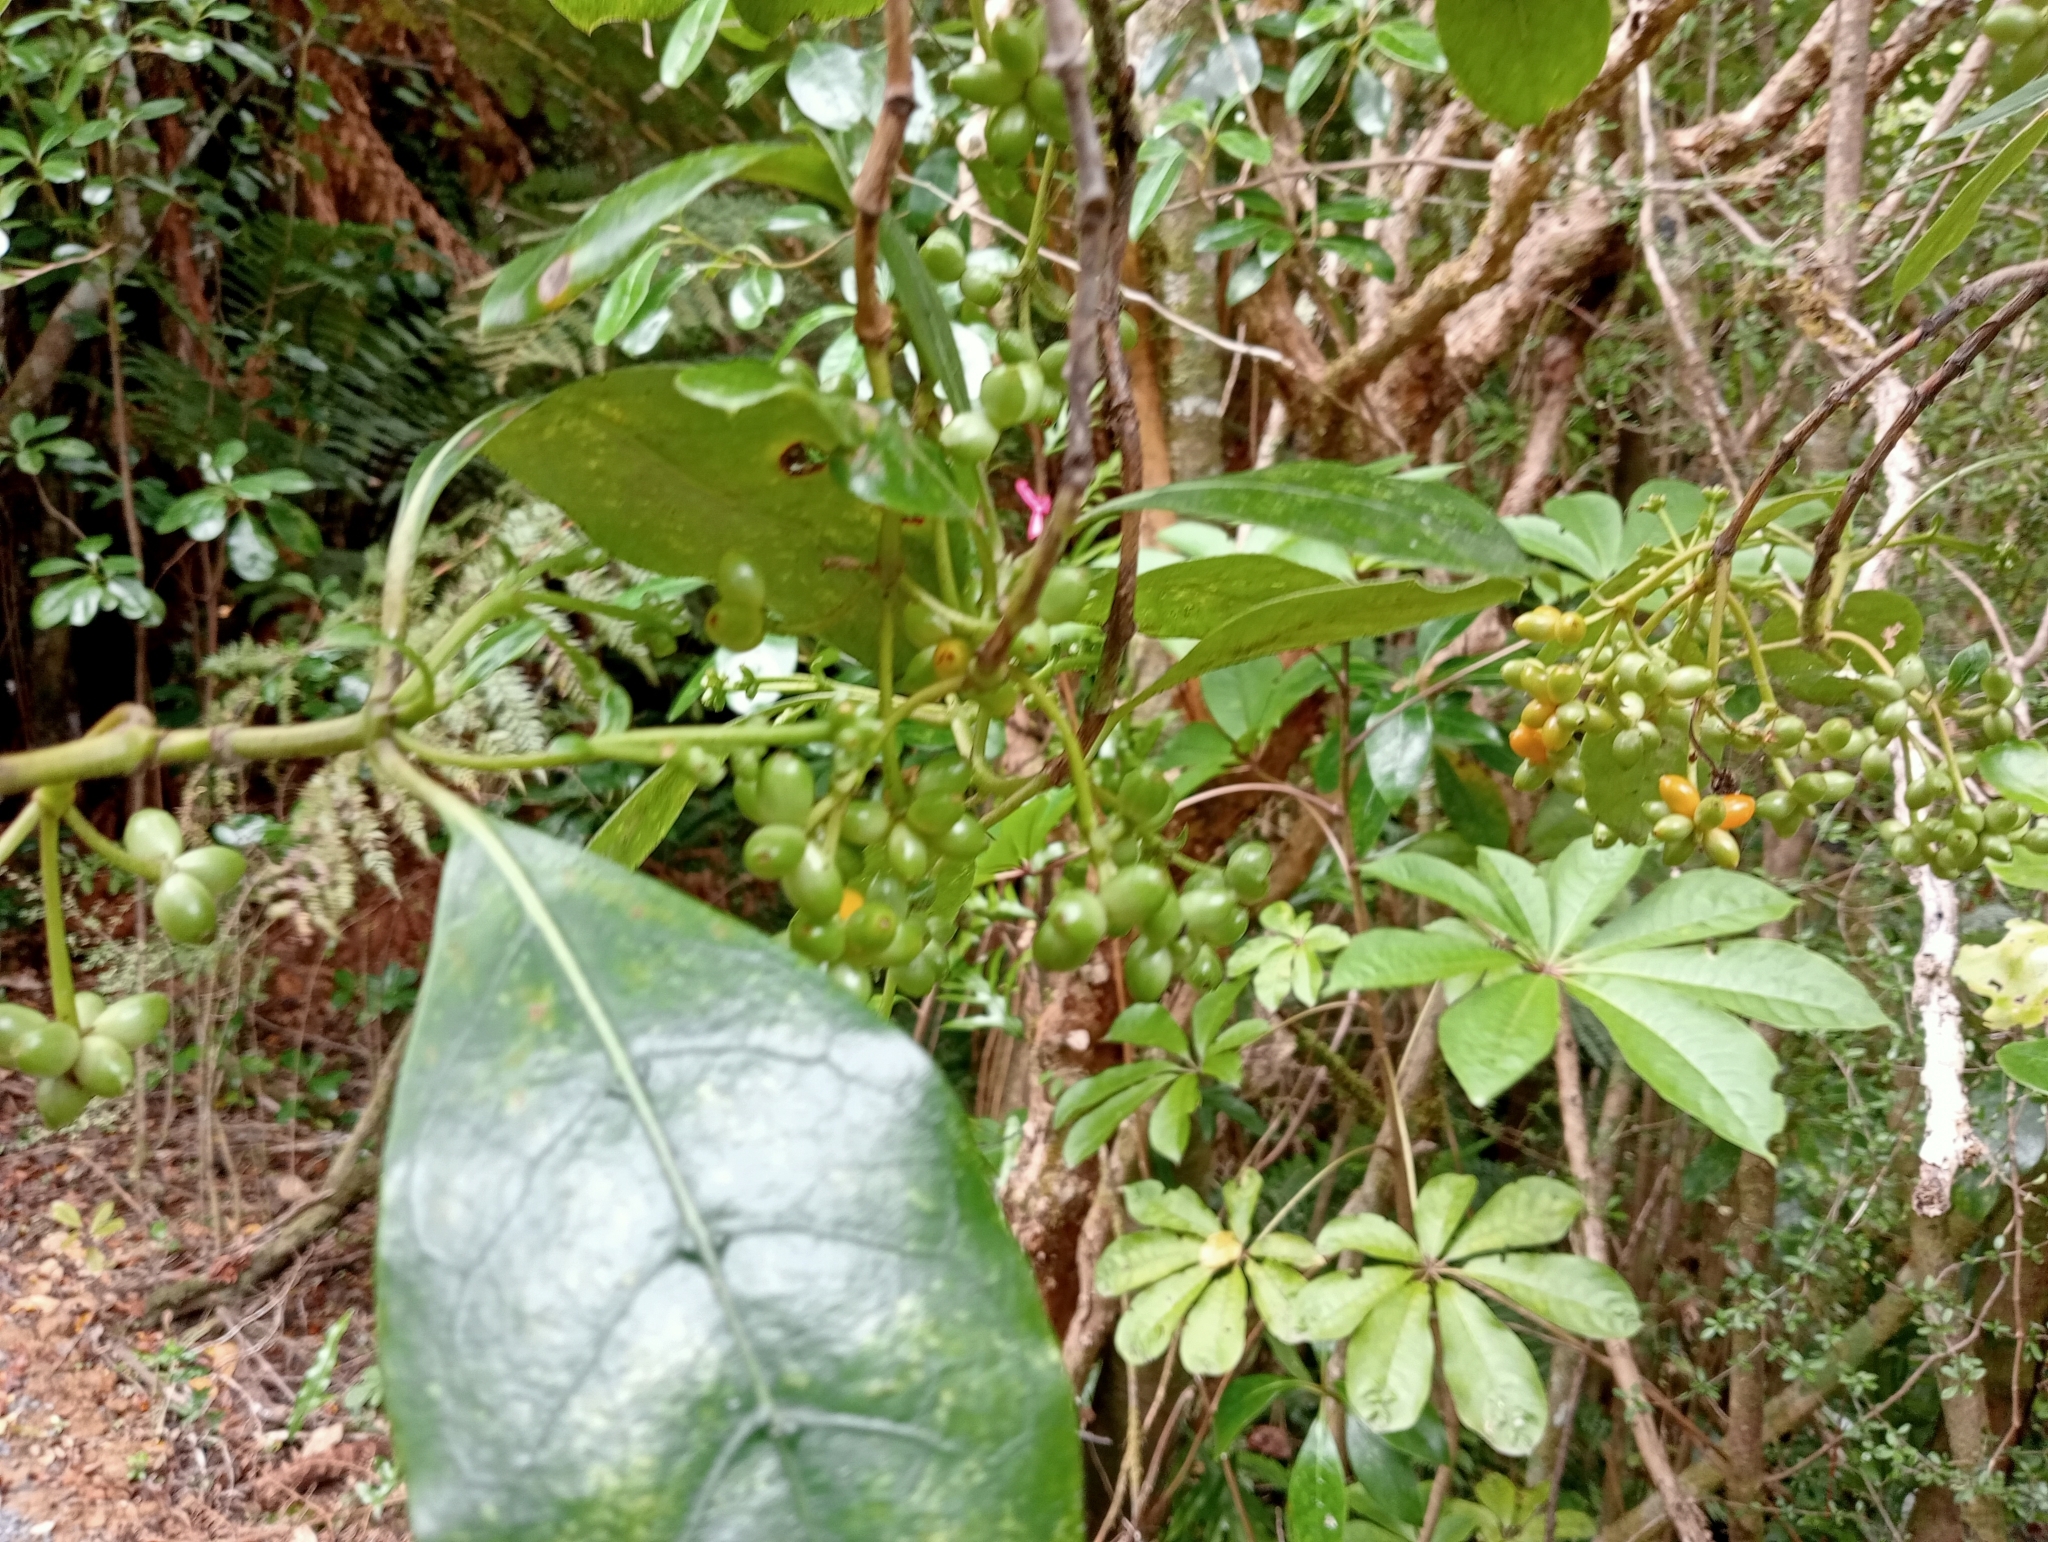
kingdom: Plantae
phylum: Tracheophyta
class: Magnoliopsida
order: Gentianales
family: Rubiaceae
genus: Coprosma
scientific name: Coprosma lucida
